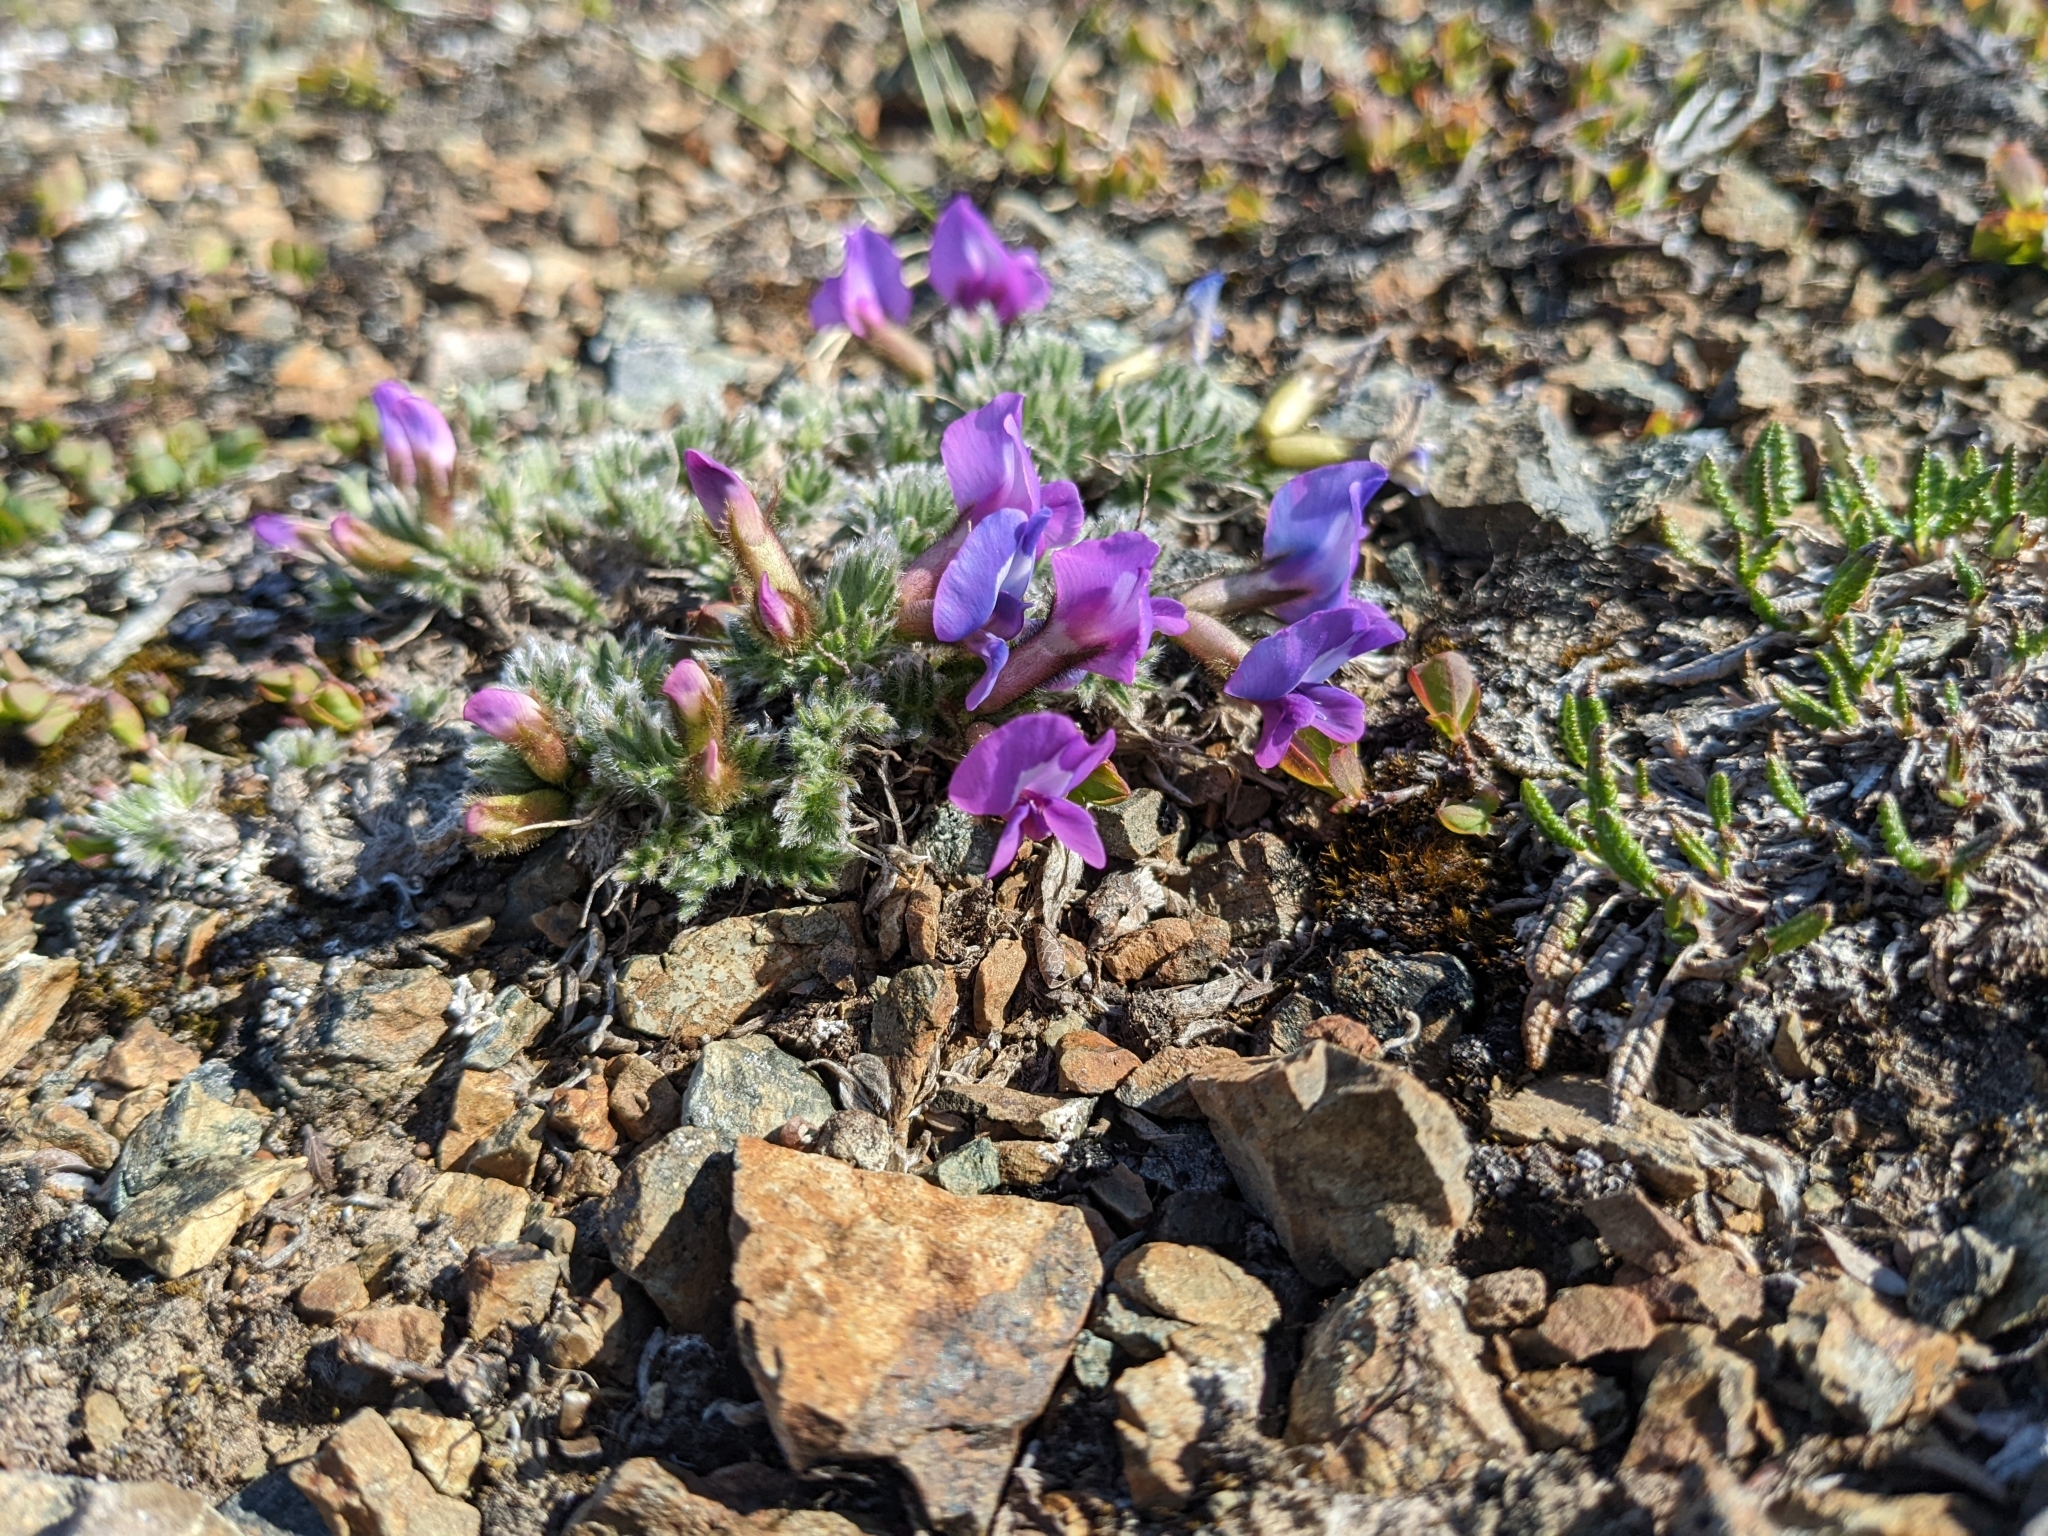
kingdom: Plantae
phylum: Tracheophyta
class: Magnoliopsida
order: Fabales
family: Fabaceae
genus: Oxytropis
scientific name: Oxytropis nigrescens
